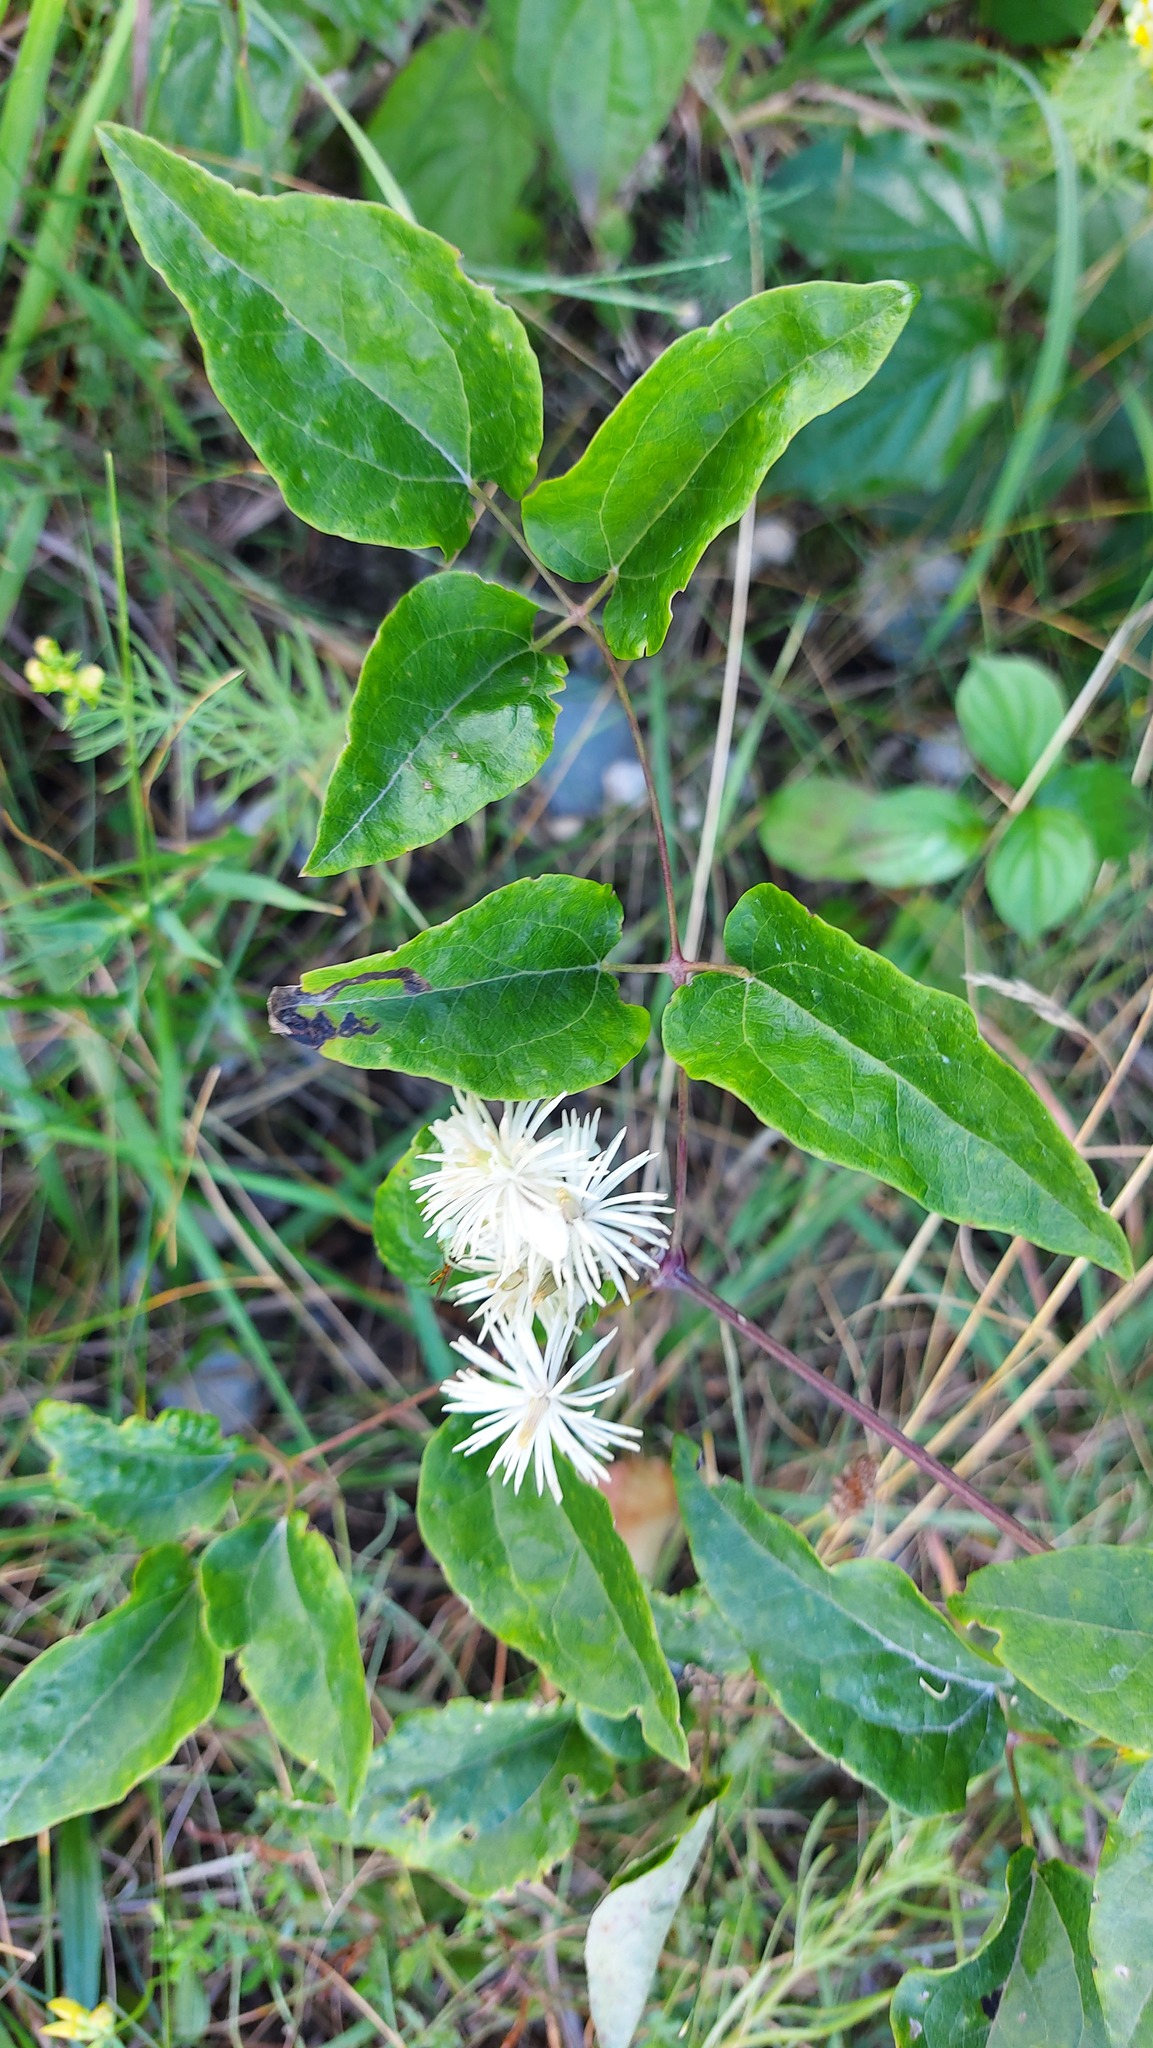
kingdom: Plantae
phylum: Tracheophyta
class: Magnoliopsida
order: Ranunculales
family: Ranunculaceae
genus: Clematis
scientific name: Clematis vitalba
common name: Evergreen clematis
